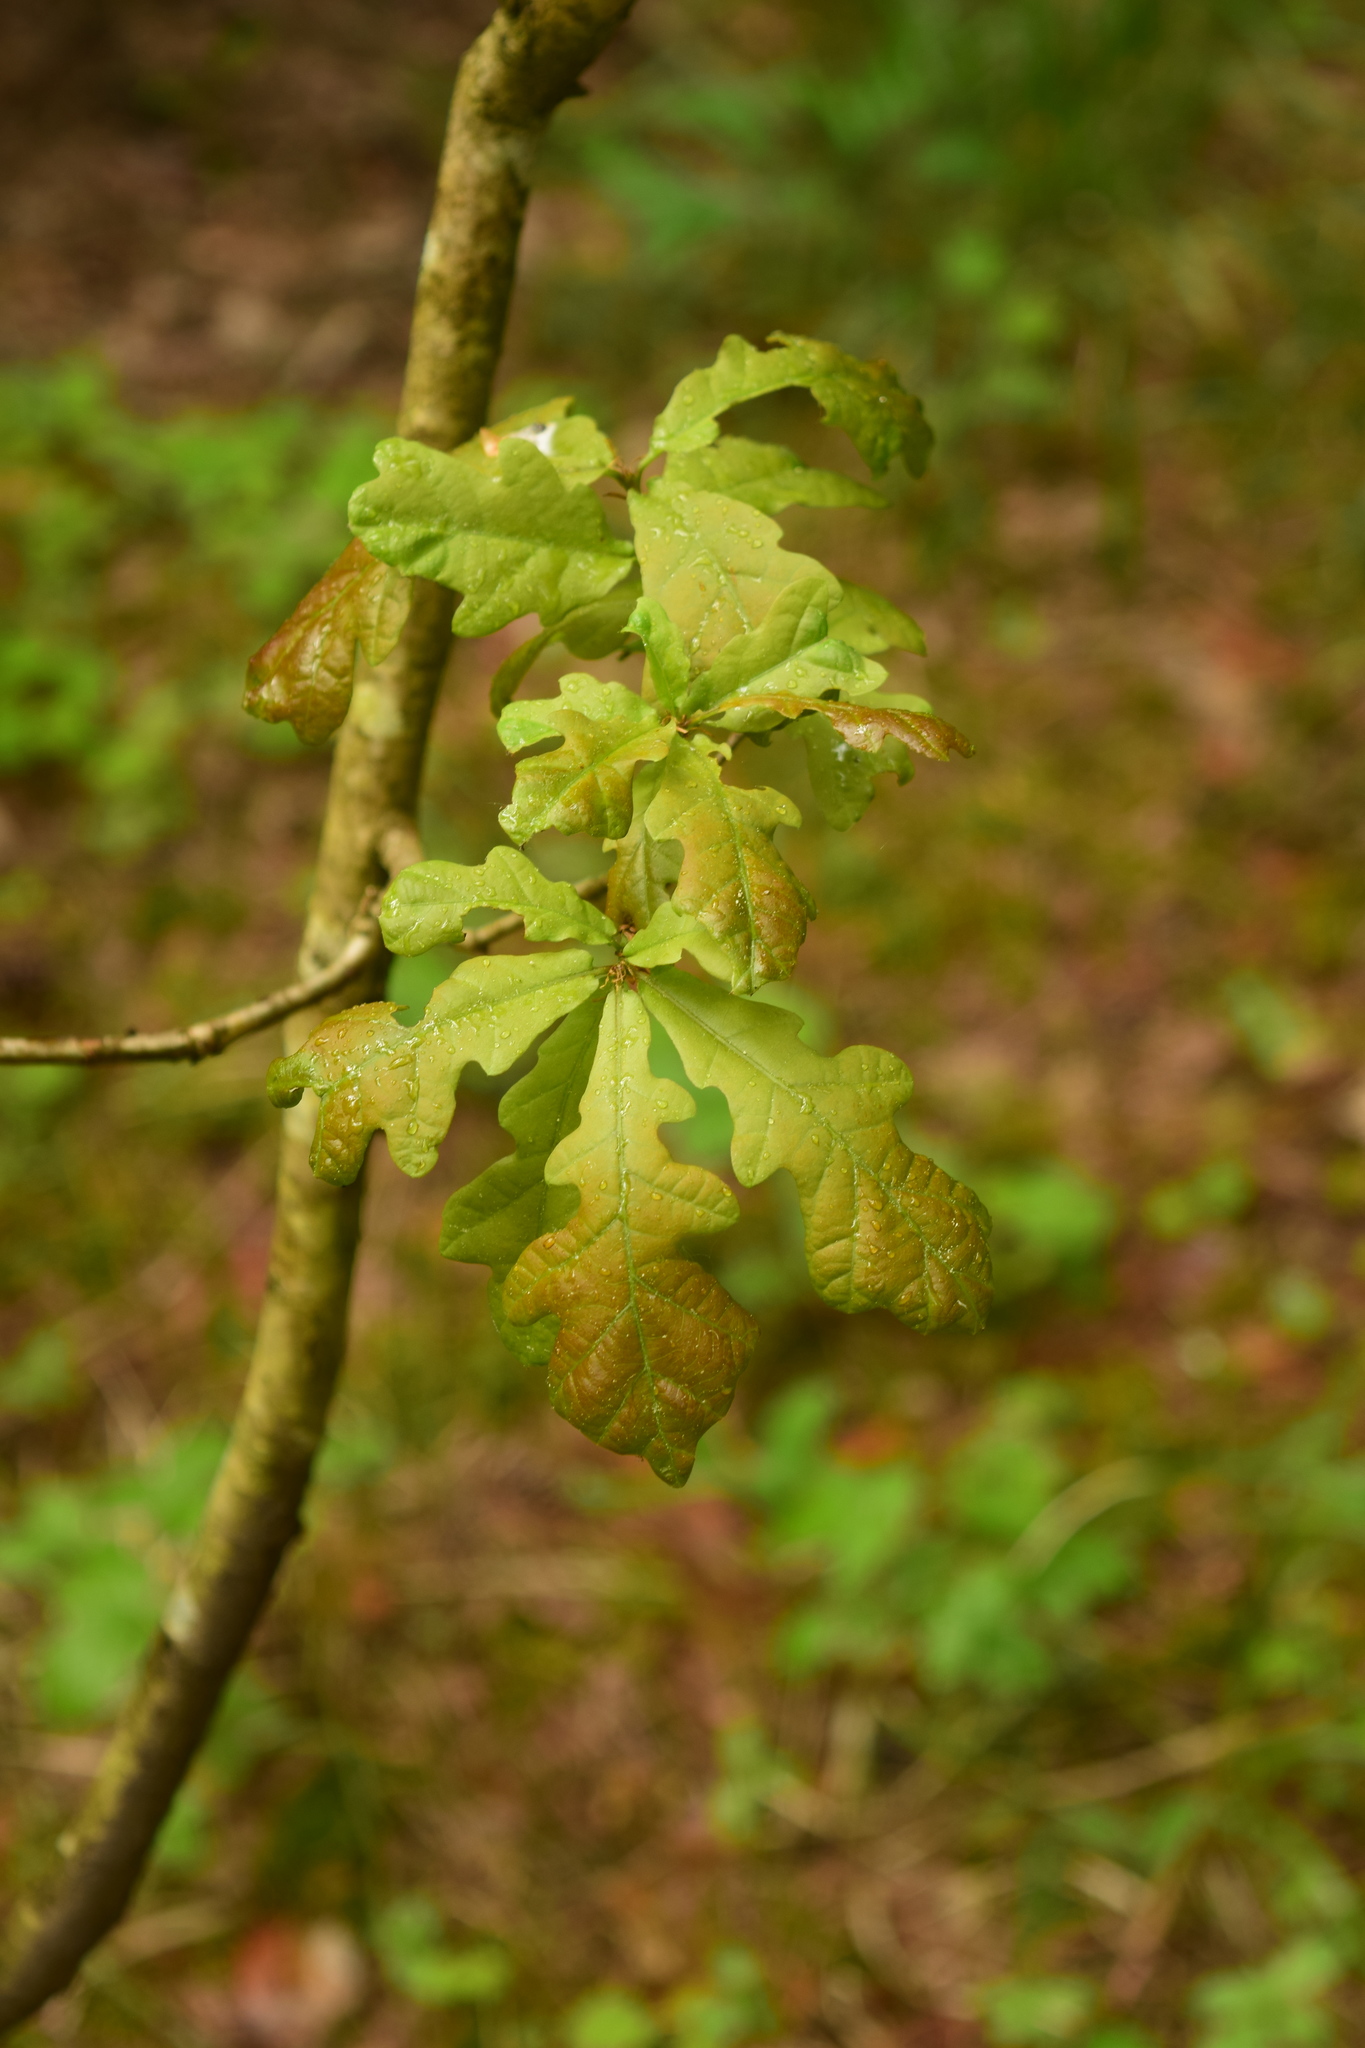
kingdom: Plantae
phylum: Tracheophyta
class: Magnoliopsida
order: Fagales
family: Fagaceae
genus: Quercus
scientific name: Quercus robur
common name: Pedunculate oak
